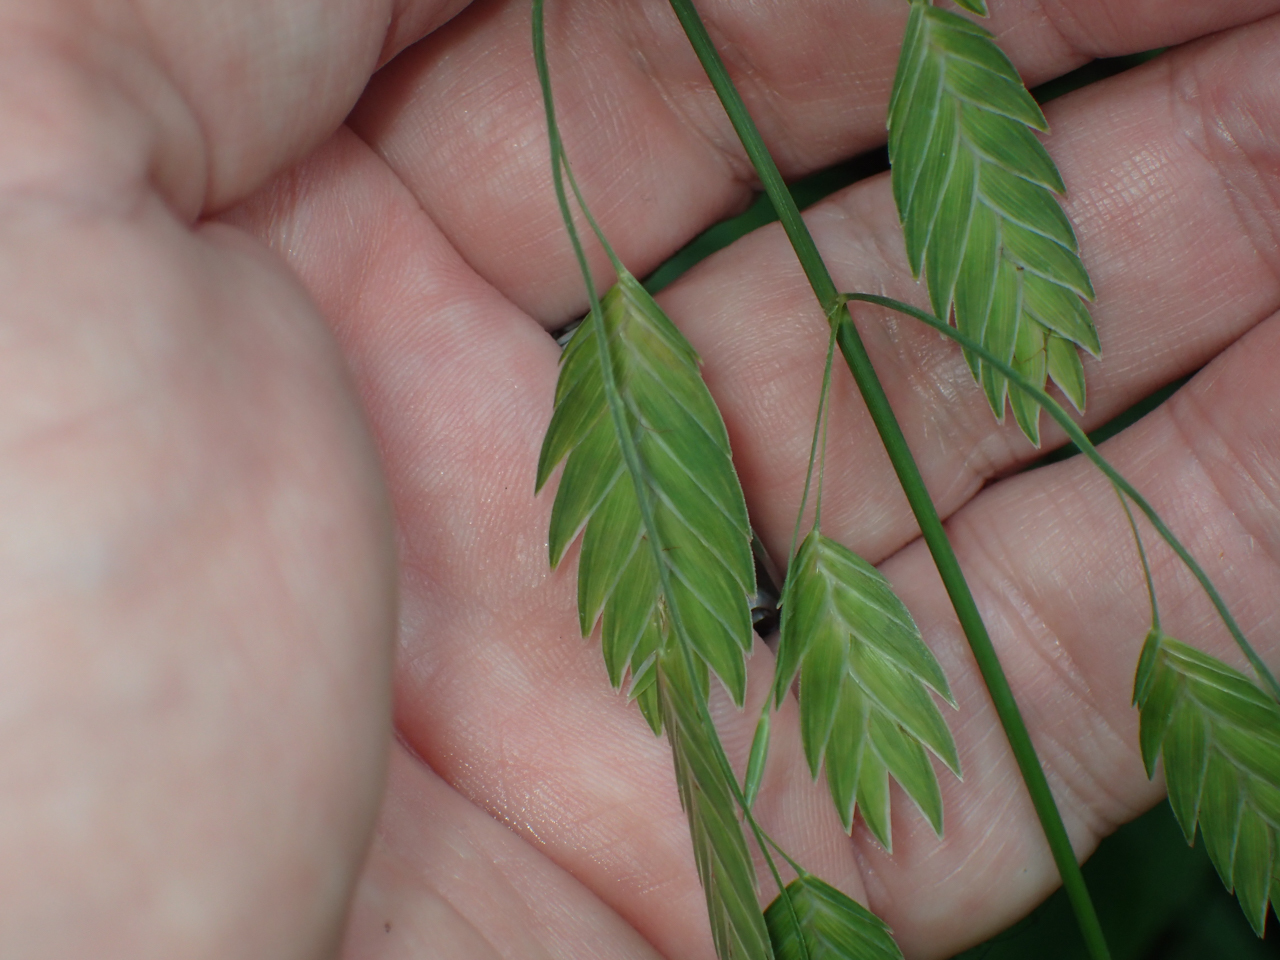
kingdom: Plantae
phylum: Tracheophyta
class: Liliopsida
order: Poales
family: Poaceae
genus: Chasmanthium
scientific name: Chasmanthium latifolium
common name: Broad-leaved chasmanthium
